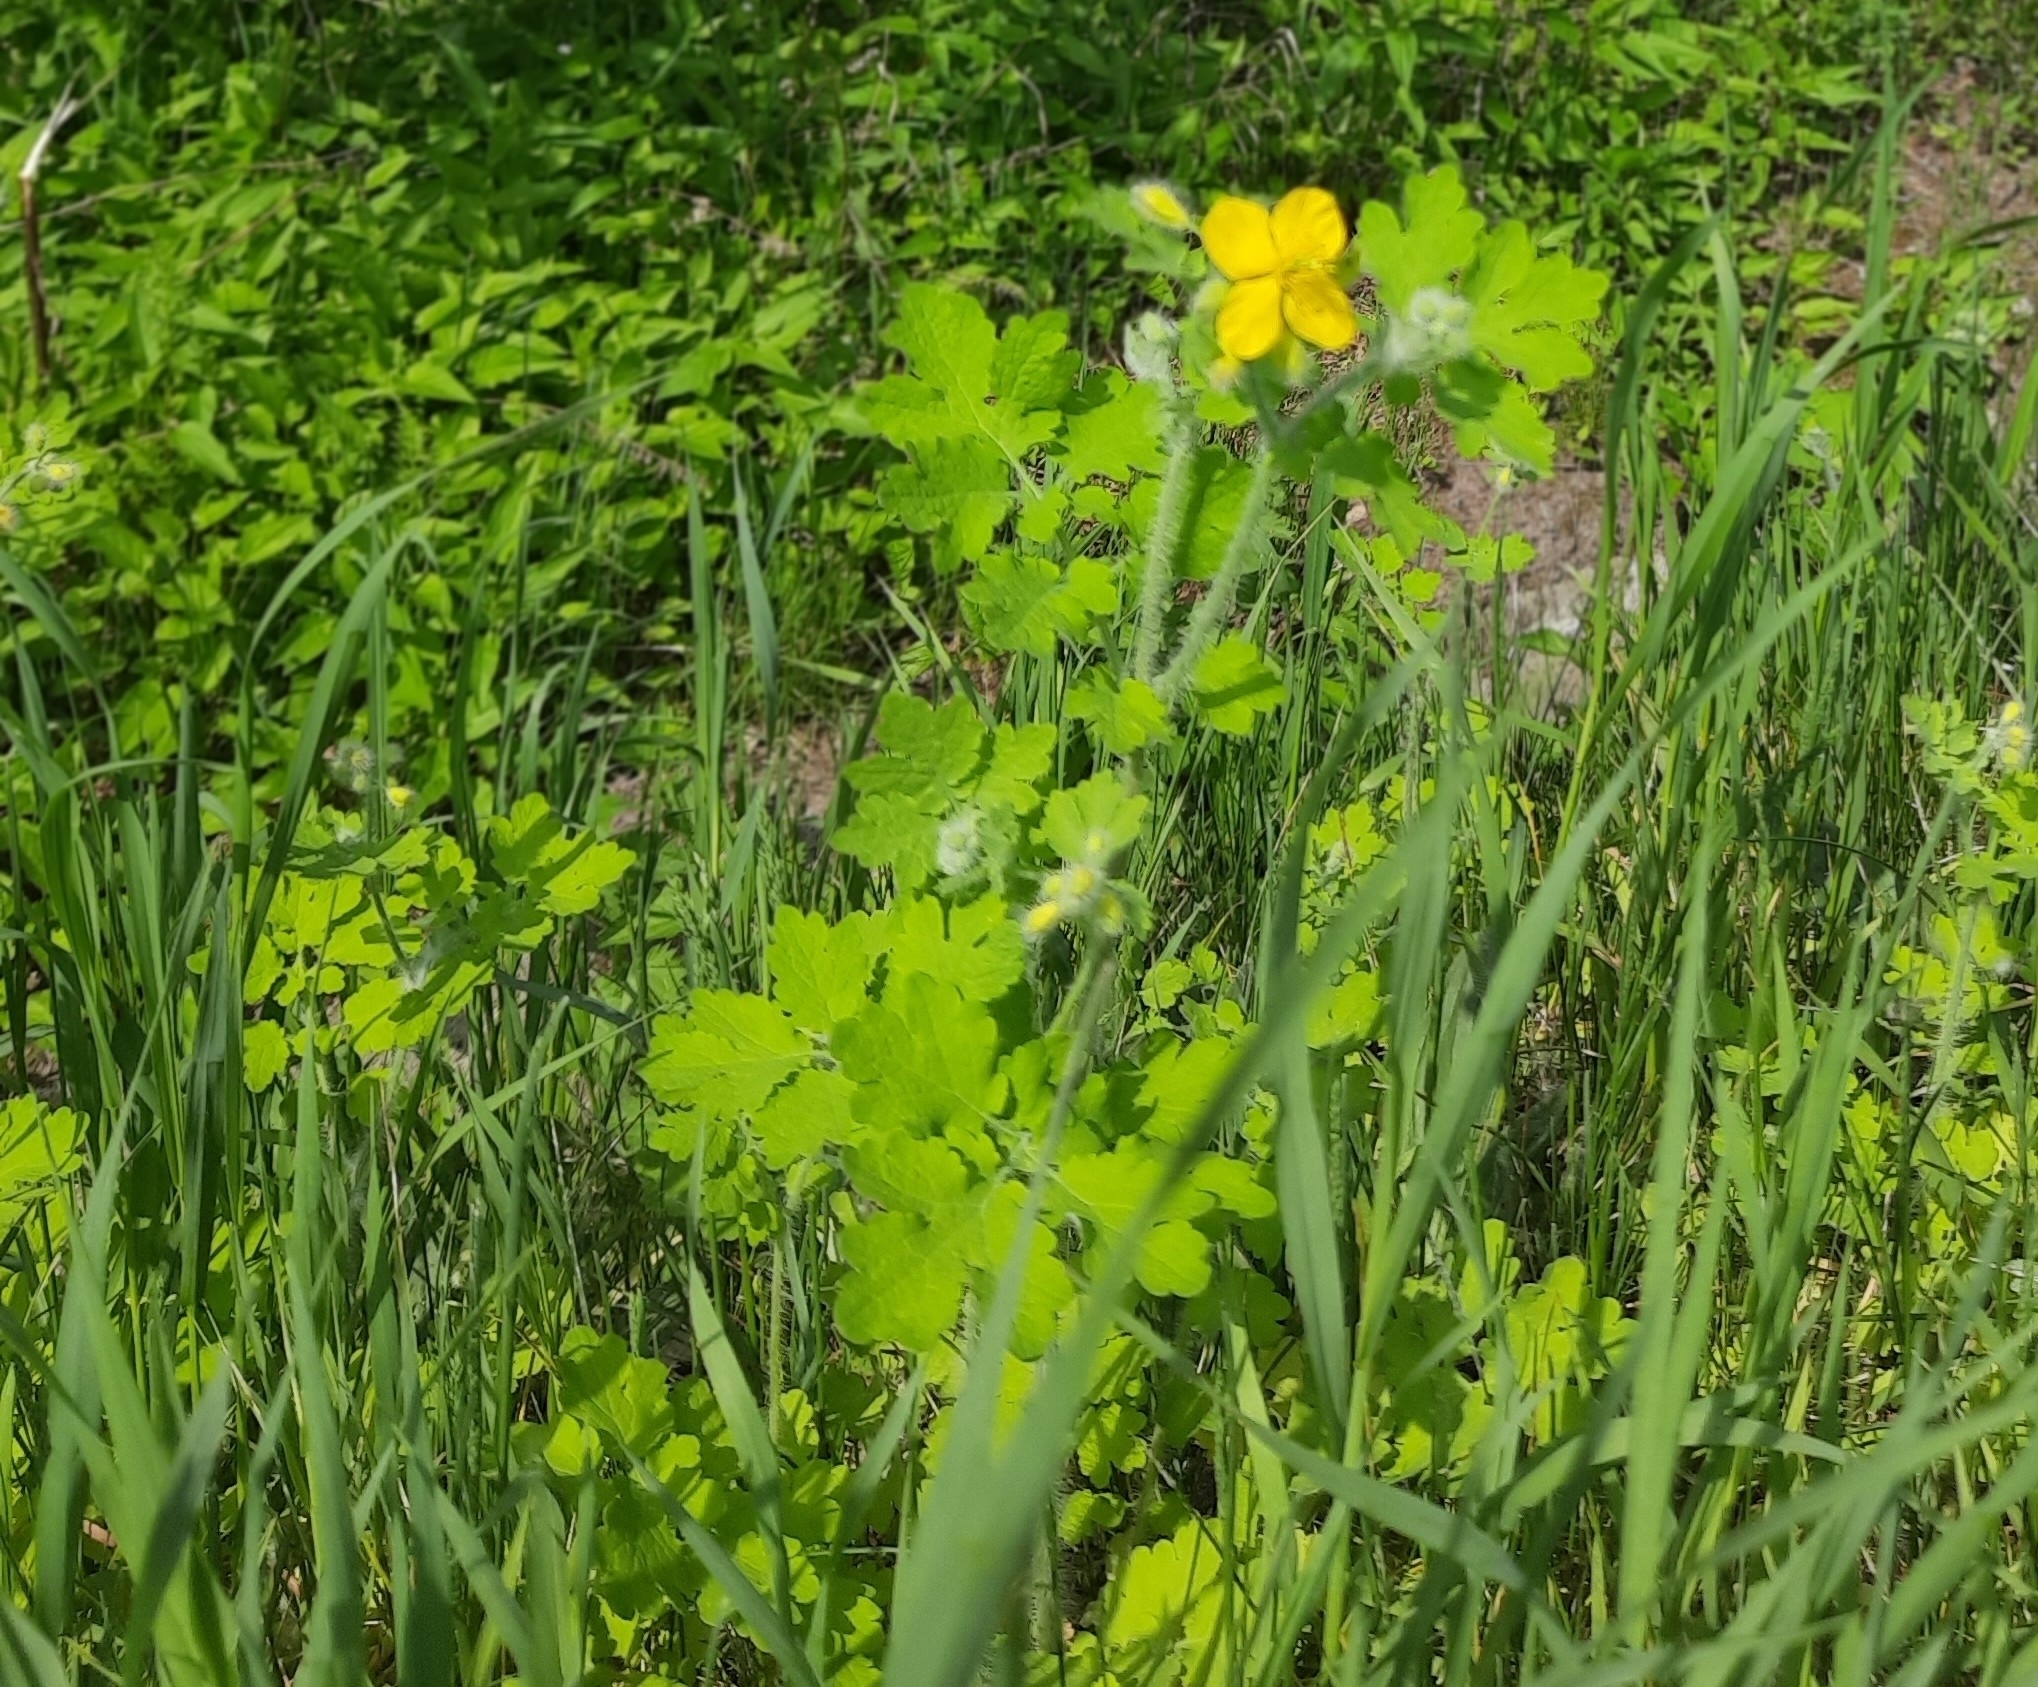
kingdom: Plantae
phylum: Tracheophyta
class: Magnoliopsida
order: Ranunculales
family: Papaveraceae
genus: Chelidonium
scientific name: Chelidonium majus
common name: Greater celandine
